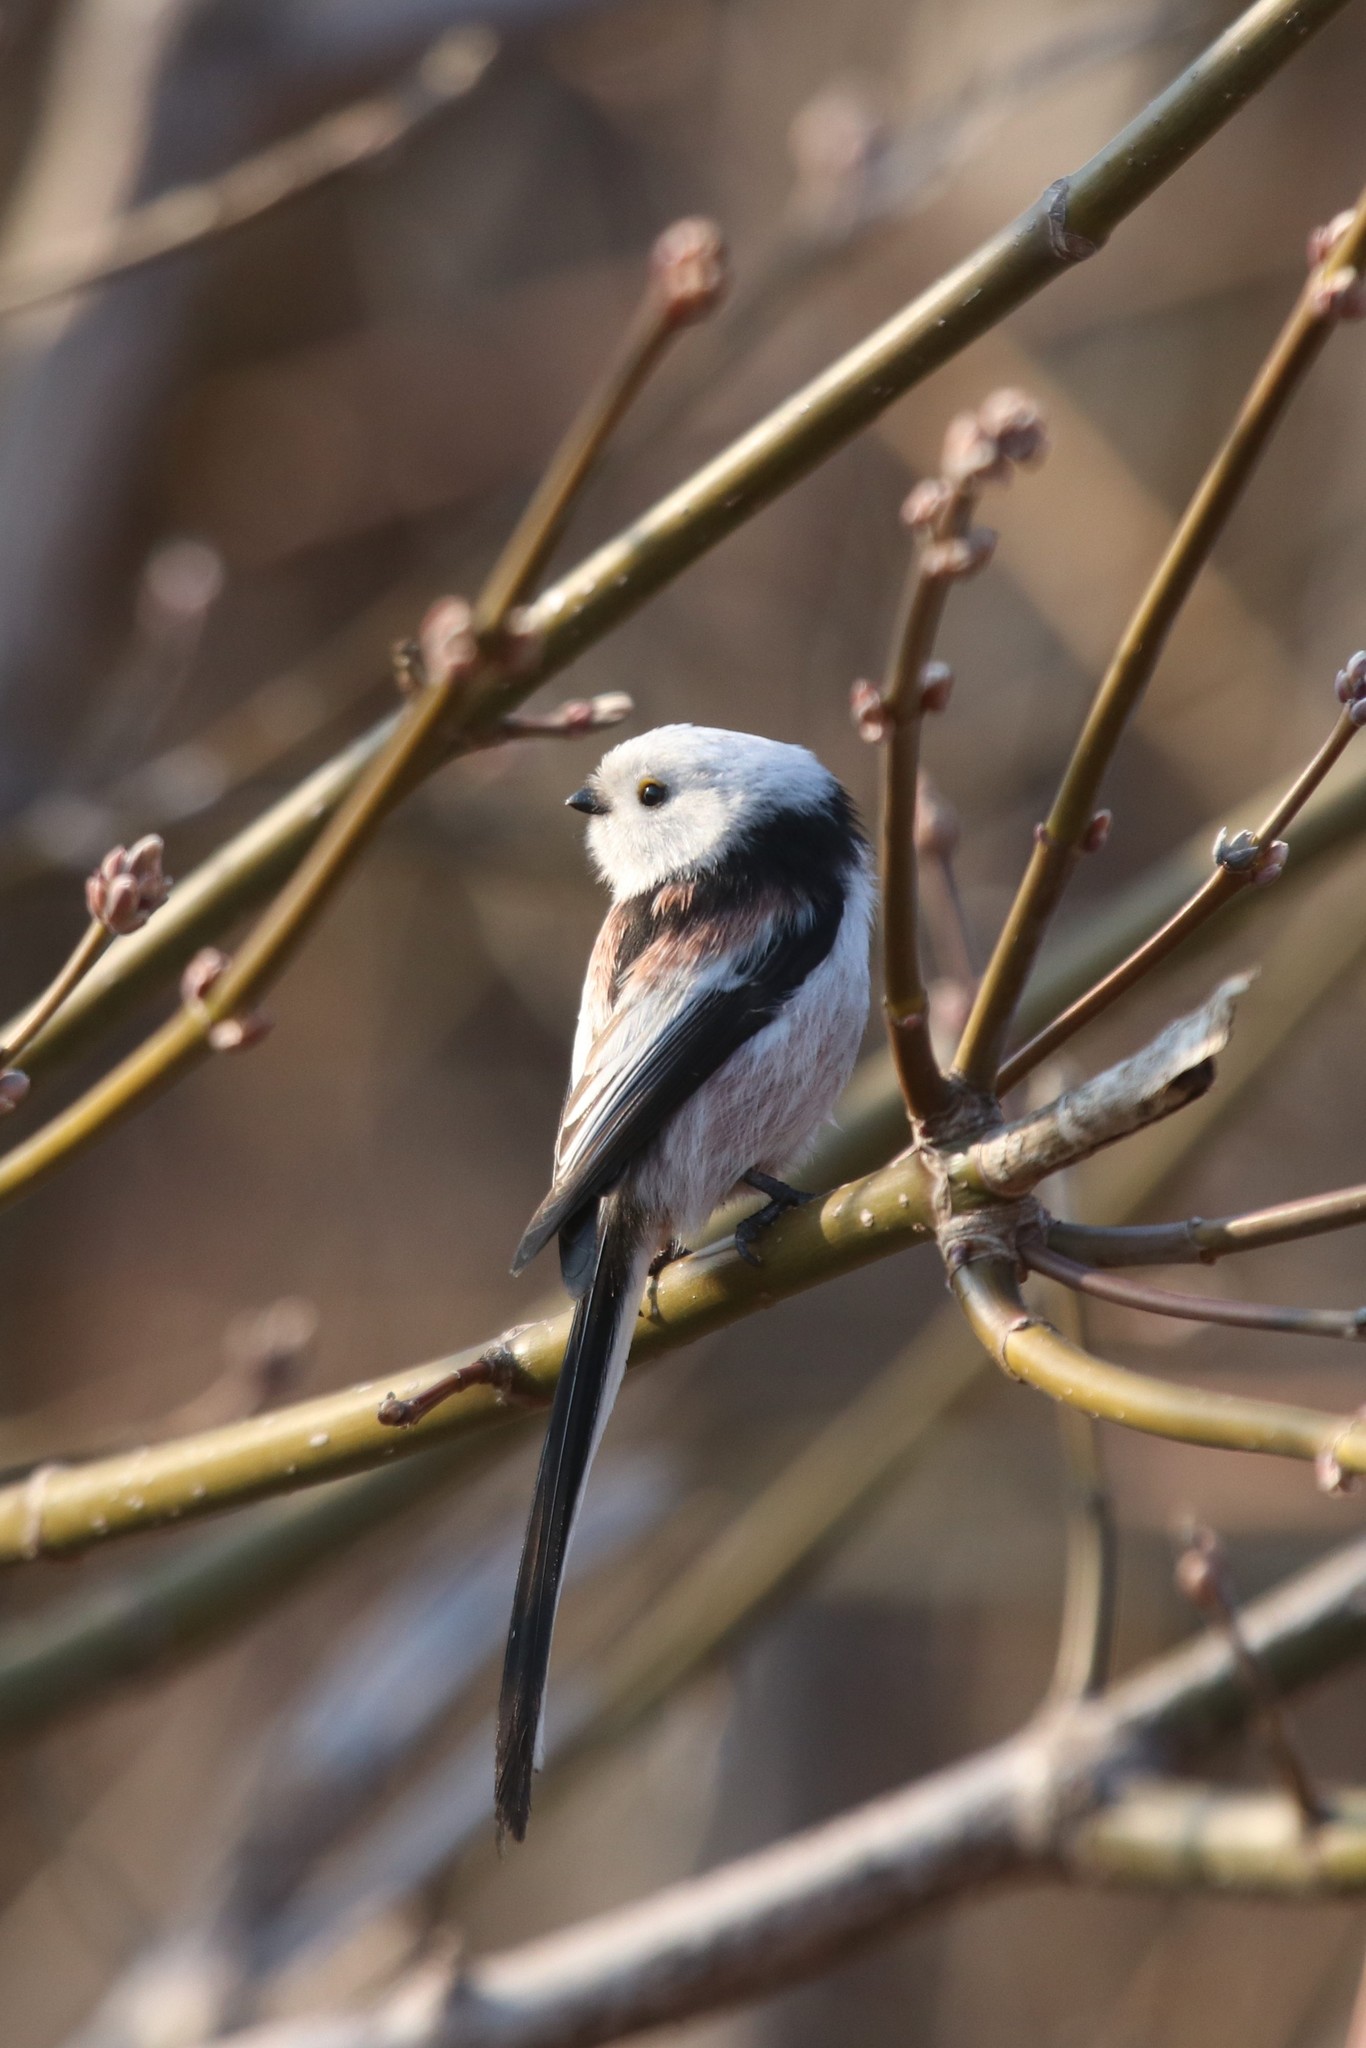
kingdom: Animalia
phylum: Chordata
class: Aves
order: Passeriformes
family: Aegithalidae
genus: Aegithalos
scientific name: Aegithalos caudatus
